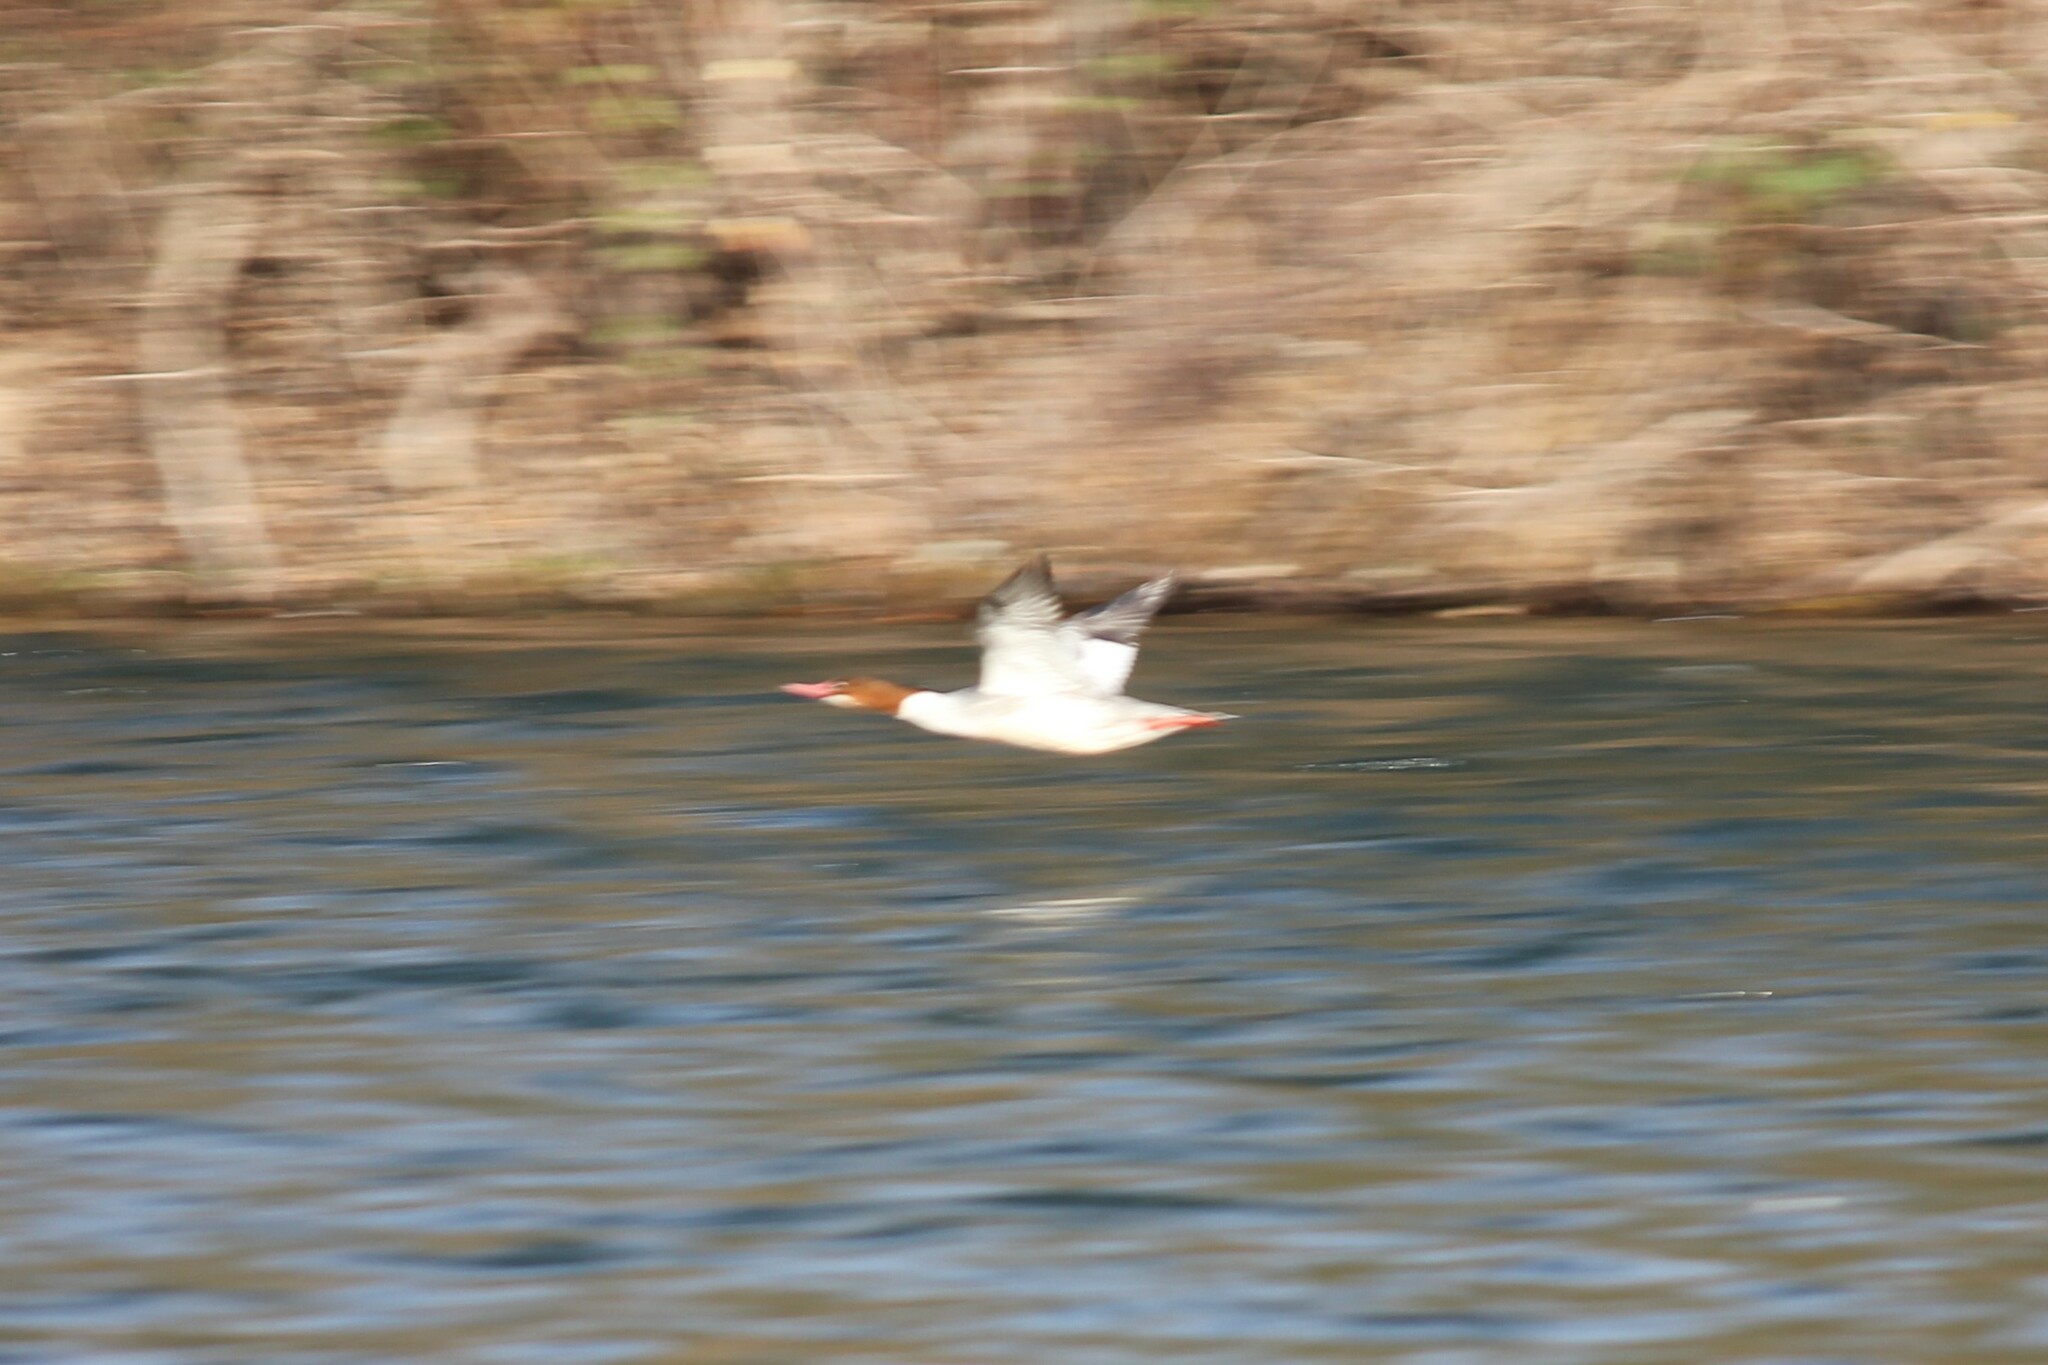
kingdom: Animalia
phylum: Chordata
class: Aves
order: Anseriformes
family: Anatidae
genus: Mergus
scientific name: Mergus merganser
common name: Common merganser
